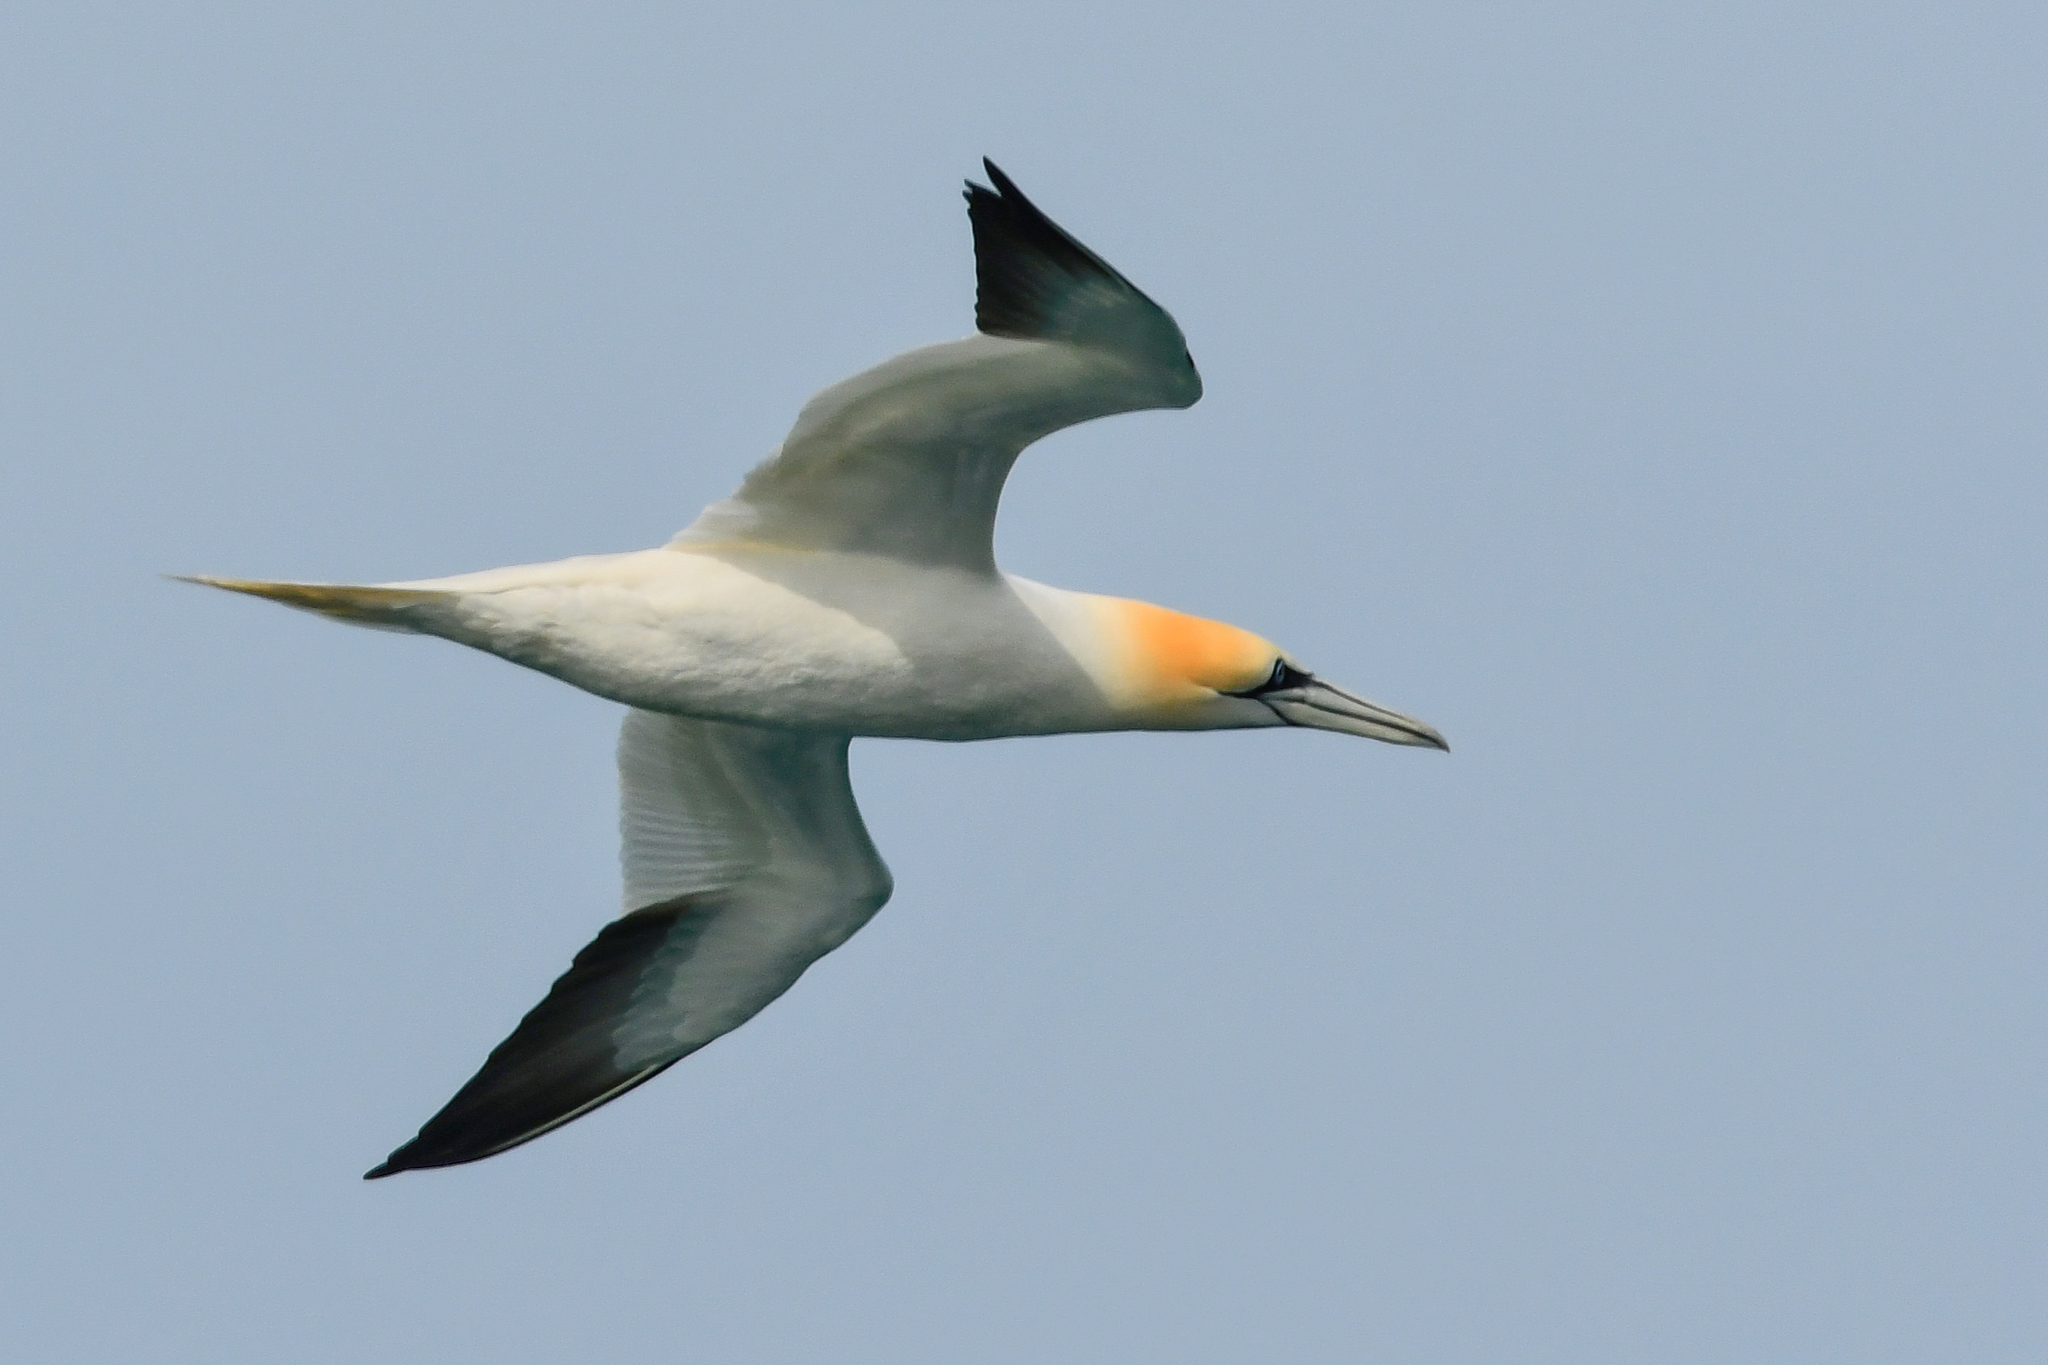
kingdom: Animalia
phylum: Chordata
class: Aves
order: Suliformes
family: Sulidae
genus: Morus
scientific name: Morus bassanus
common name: Northern gannet
